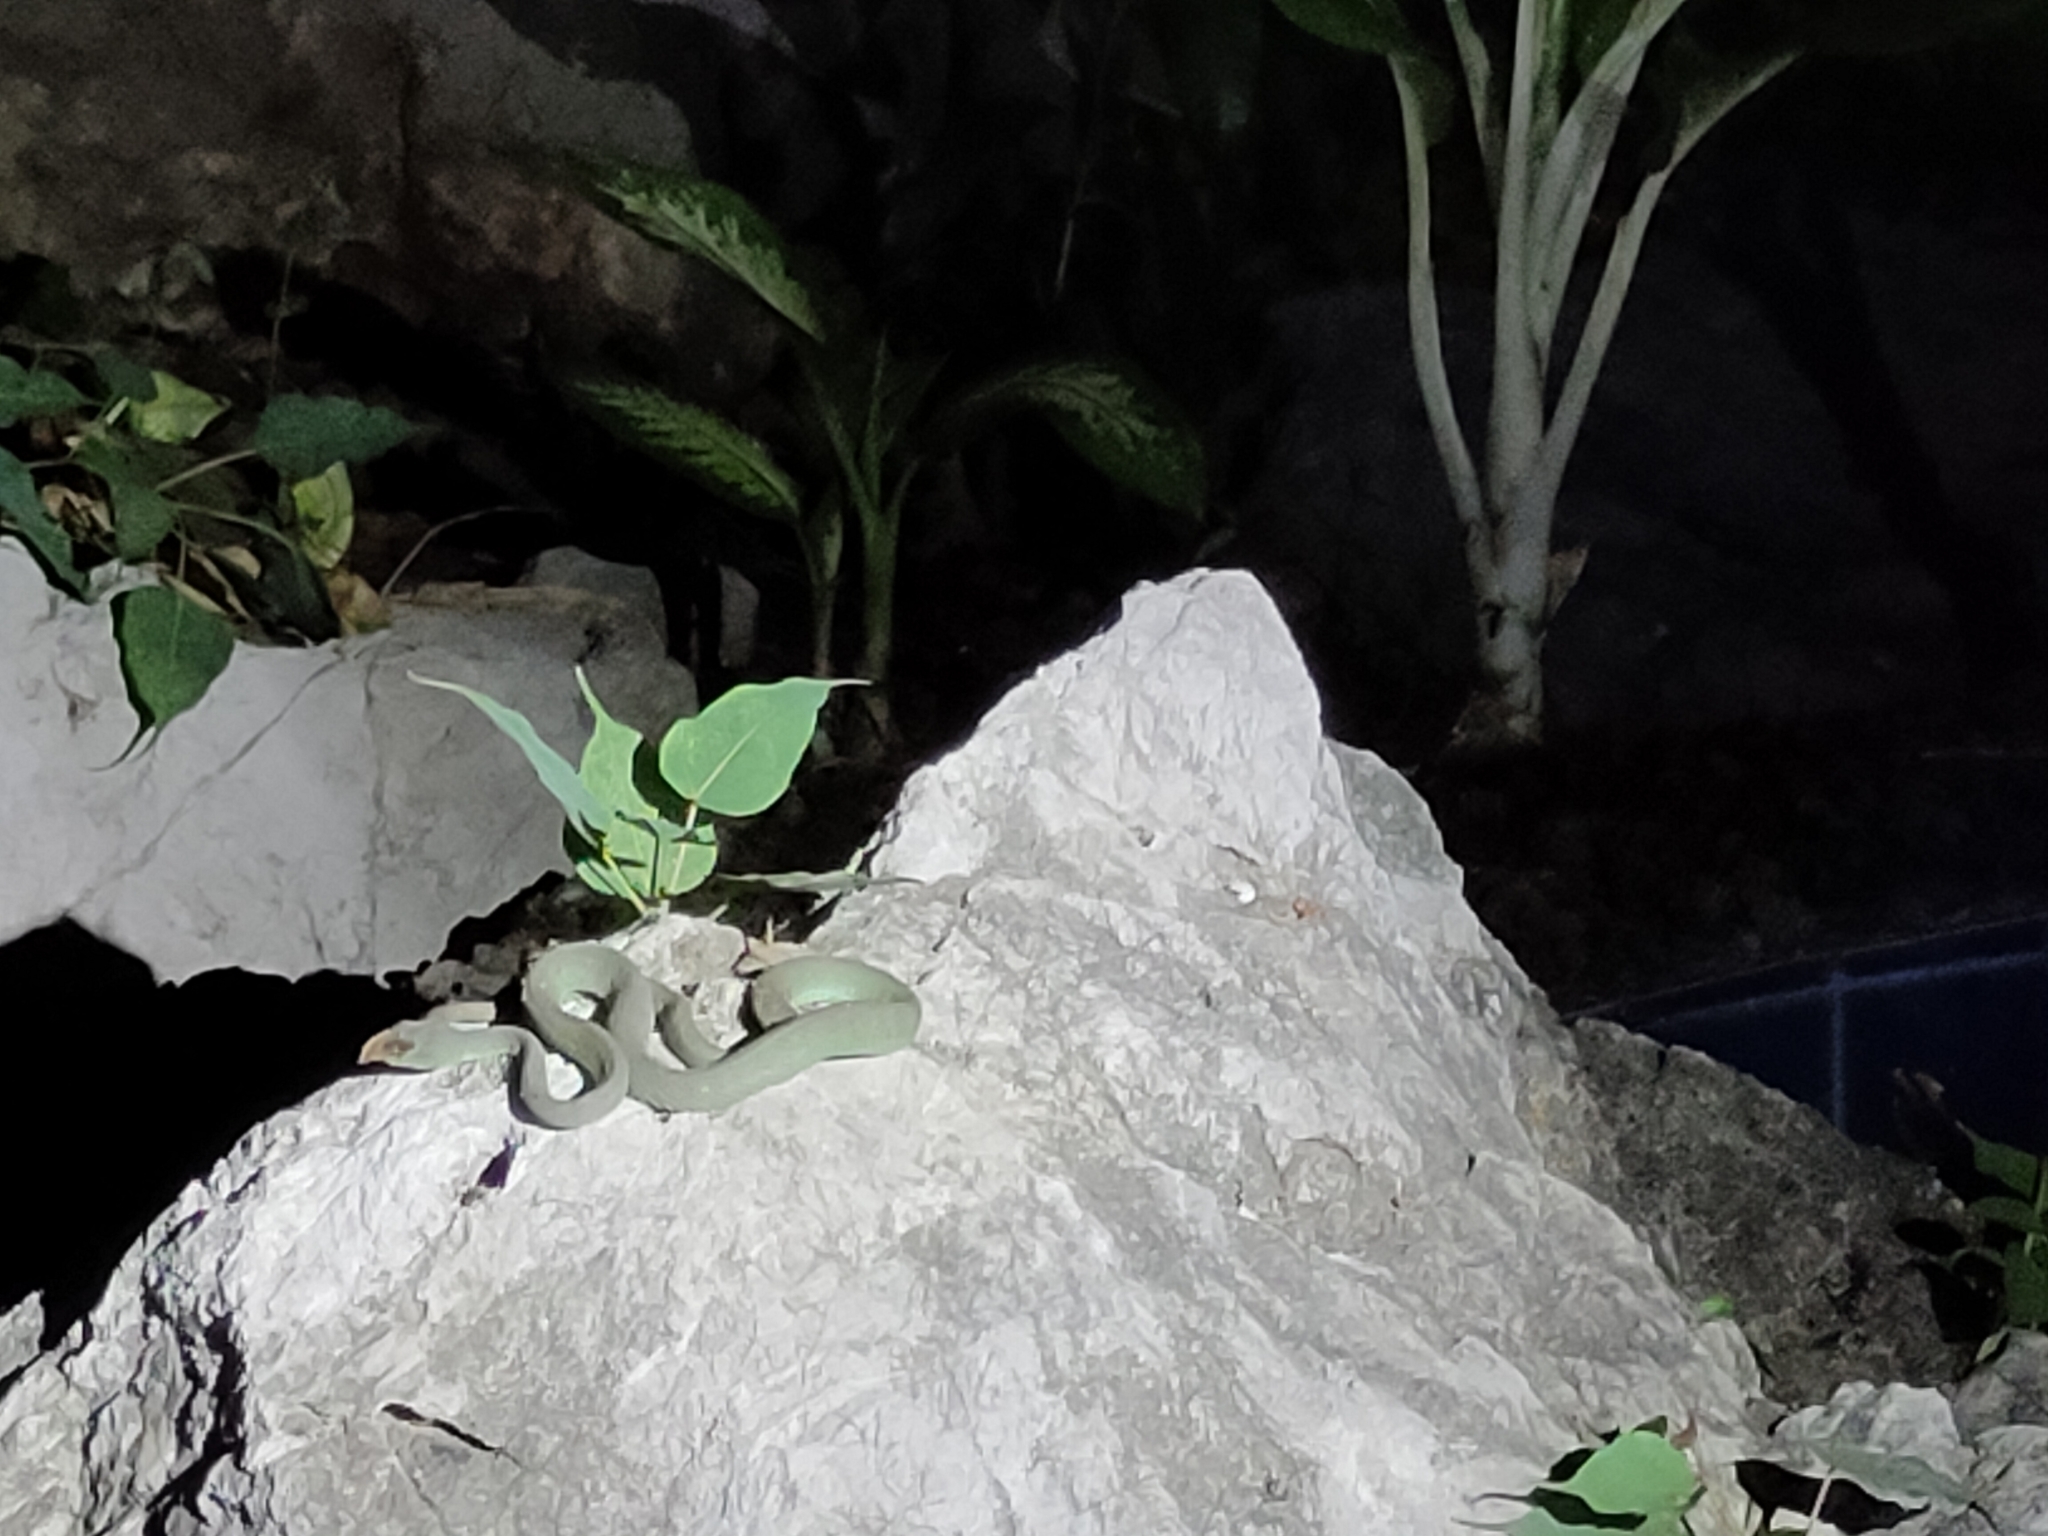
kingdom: Animalia
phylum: Chordata
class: Squamata
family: Viperidae
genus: Trimeresurus
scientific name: Trimeresurus macrops
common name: Kramer's pit viper
